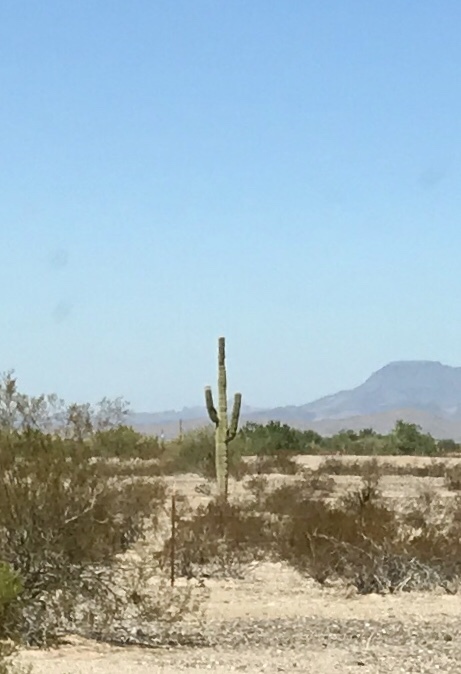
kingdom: Plantae
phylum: Tracheophyta
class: Magnoliopsida
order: Caryophyllales
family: Cactaceae
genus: Carnegiea
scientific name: Carnegiea gigantea
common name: Saguaro
